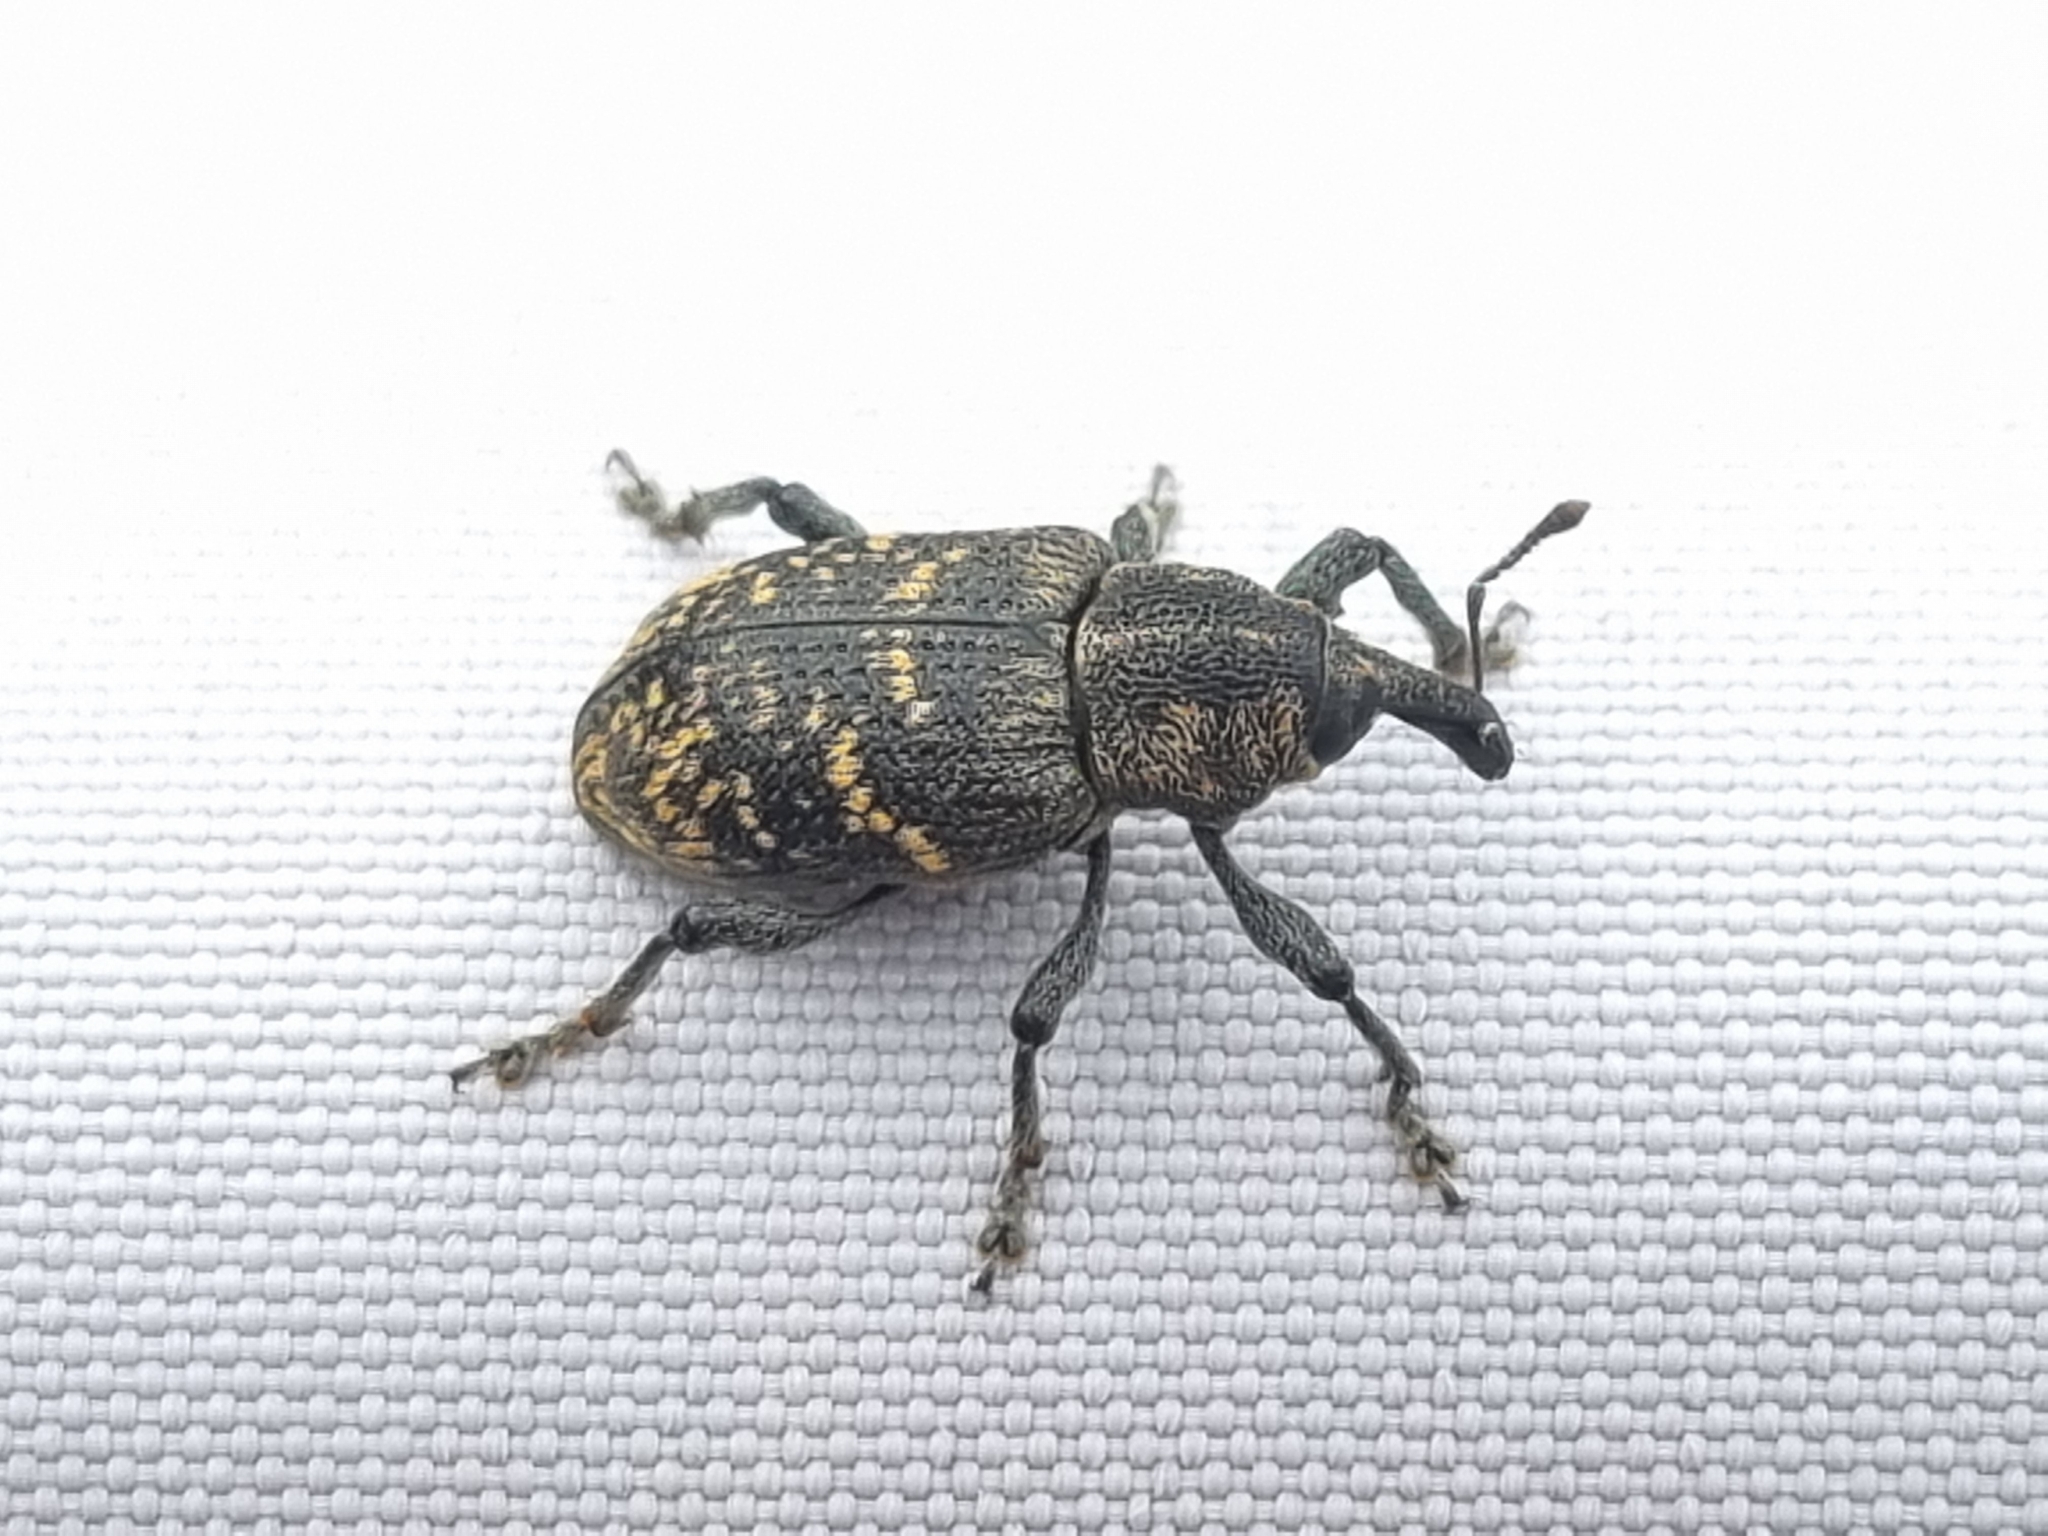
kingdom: Animalia
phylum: Arthropoda
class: Insecta
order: Coleoptera
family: Curculionidae
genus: Hylobius
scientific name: Hylobius abietis
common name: Large pine weevil
